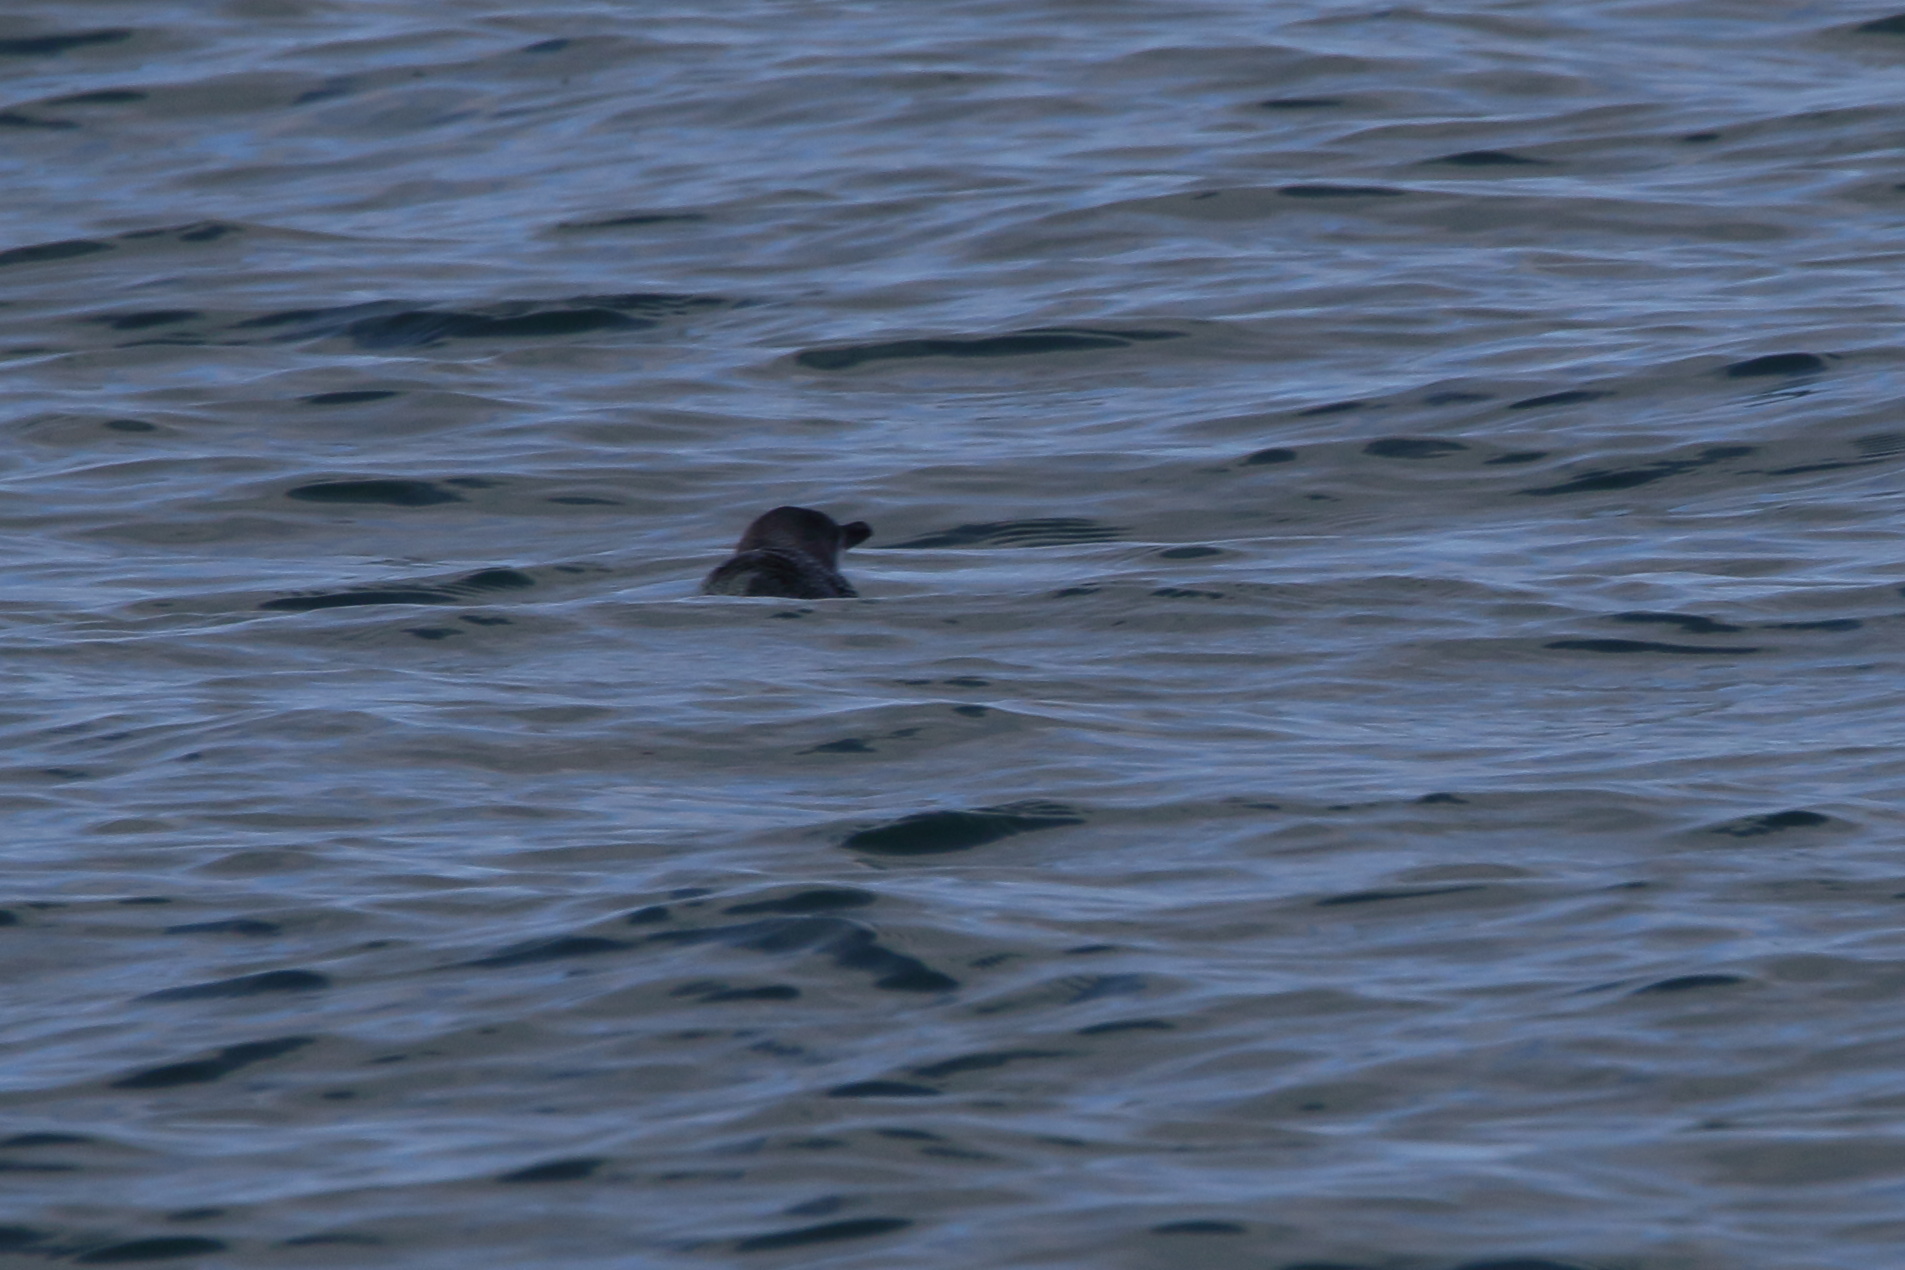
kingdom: Animalia
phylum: Chordata
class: Aves
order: Sphenisciformes
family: Spheniscidae
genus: Eudyptula
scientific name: Eudyptula minor
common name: Little penguin
